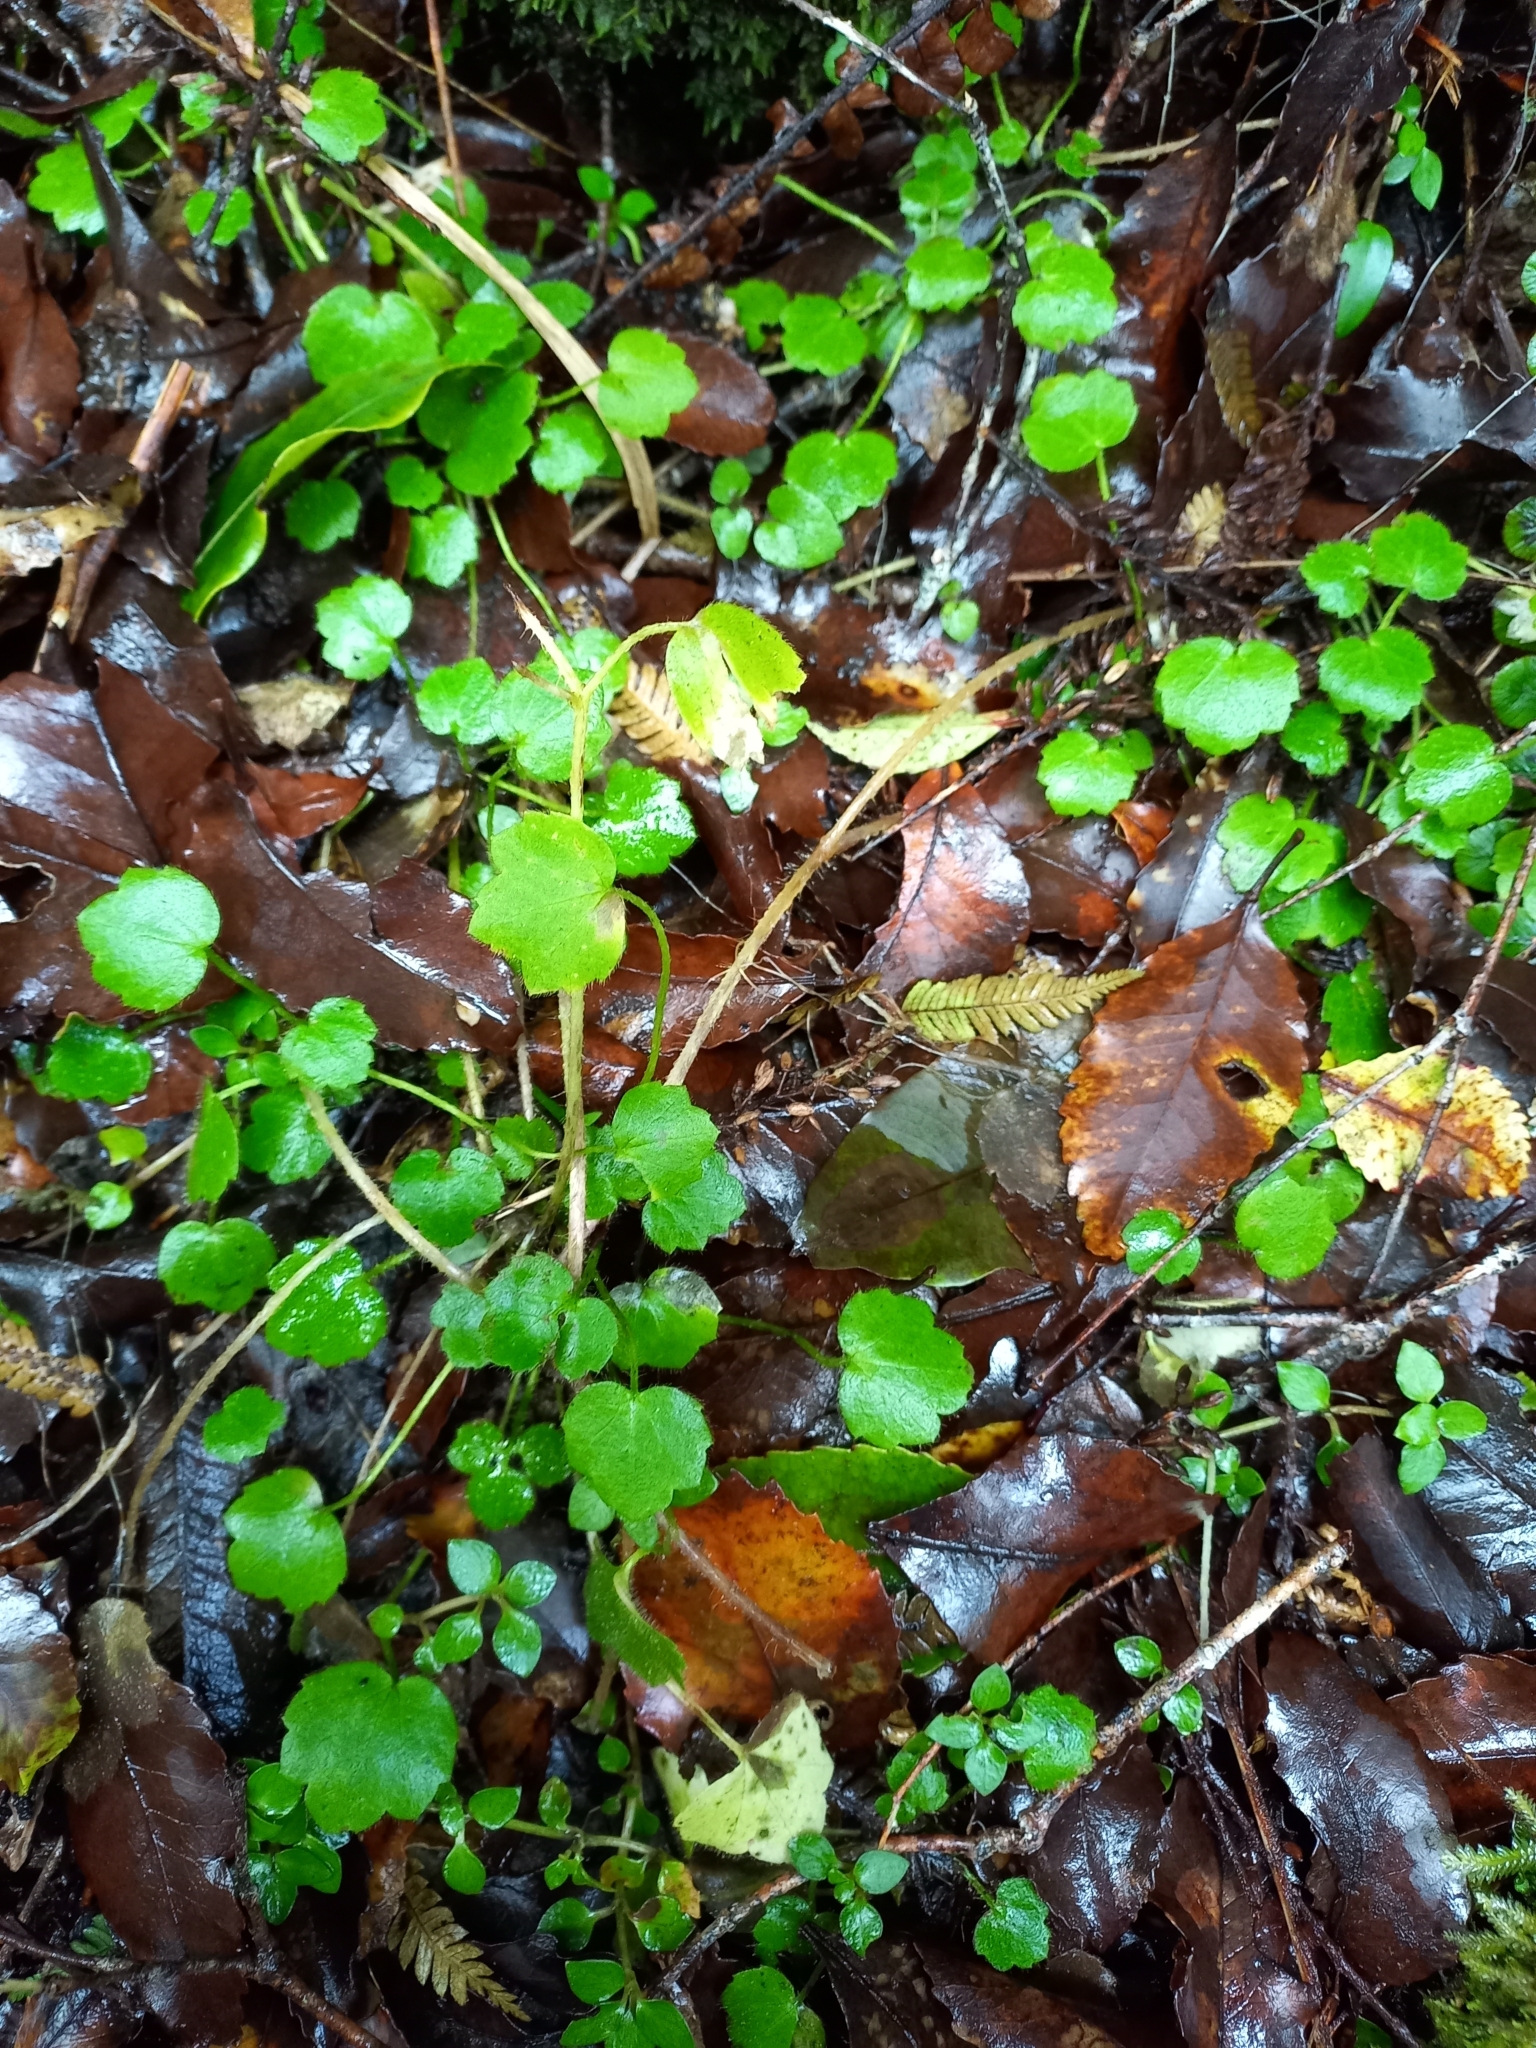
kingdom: Plantae
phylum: Tracheophyta
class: Magnoliopsida
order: Ranunculales
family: Ranunculaceae
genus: Ranunculus
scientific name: Ranunculus reflexus
